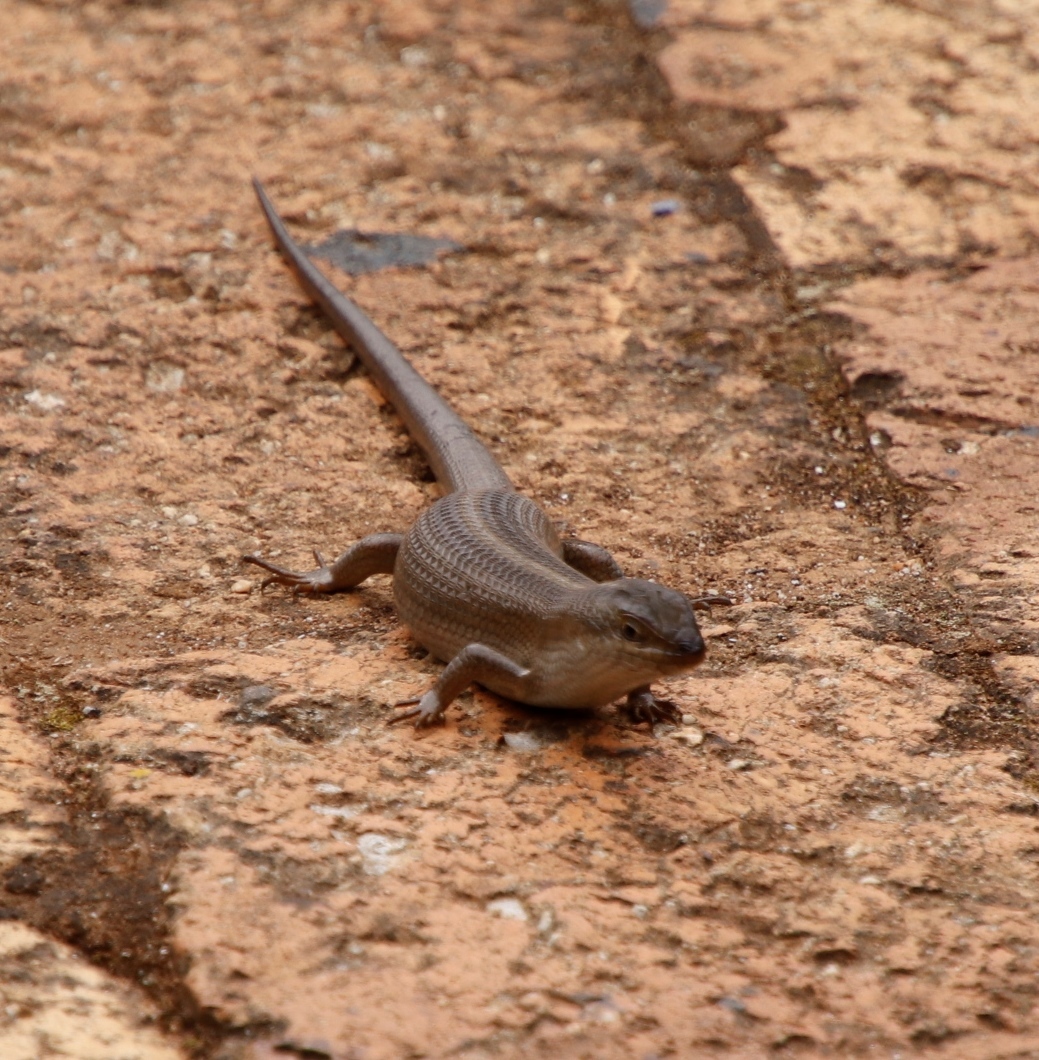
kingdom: Animalia
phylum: Chordata
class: Squamata
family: Scincidae
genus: Trachylepis
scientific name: Trachylepis capensis
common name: Cape skink
